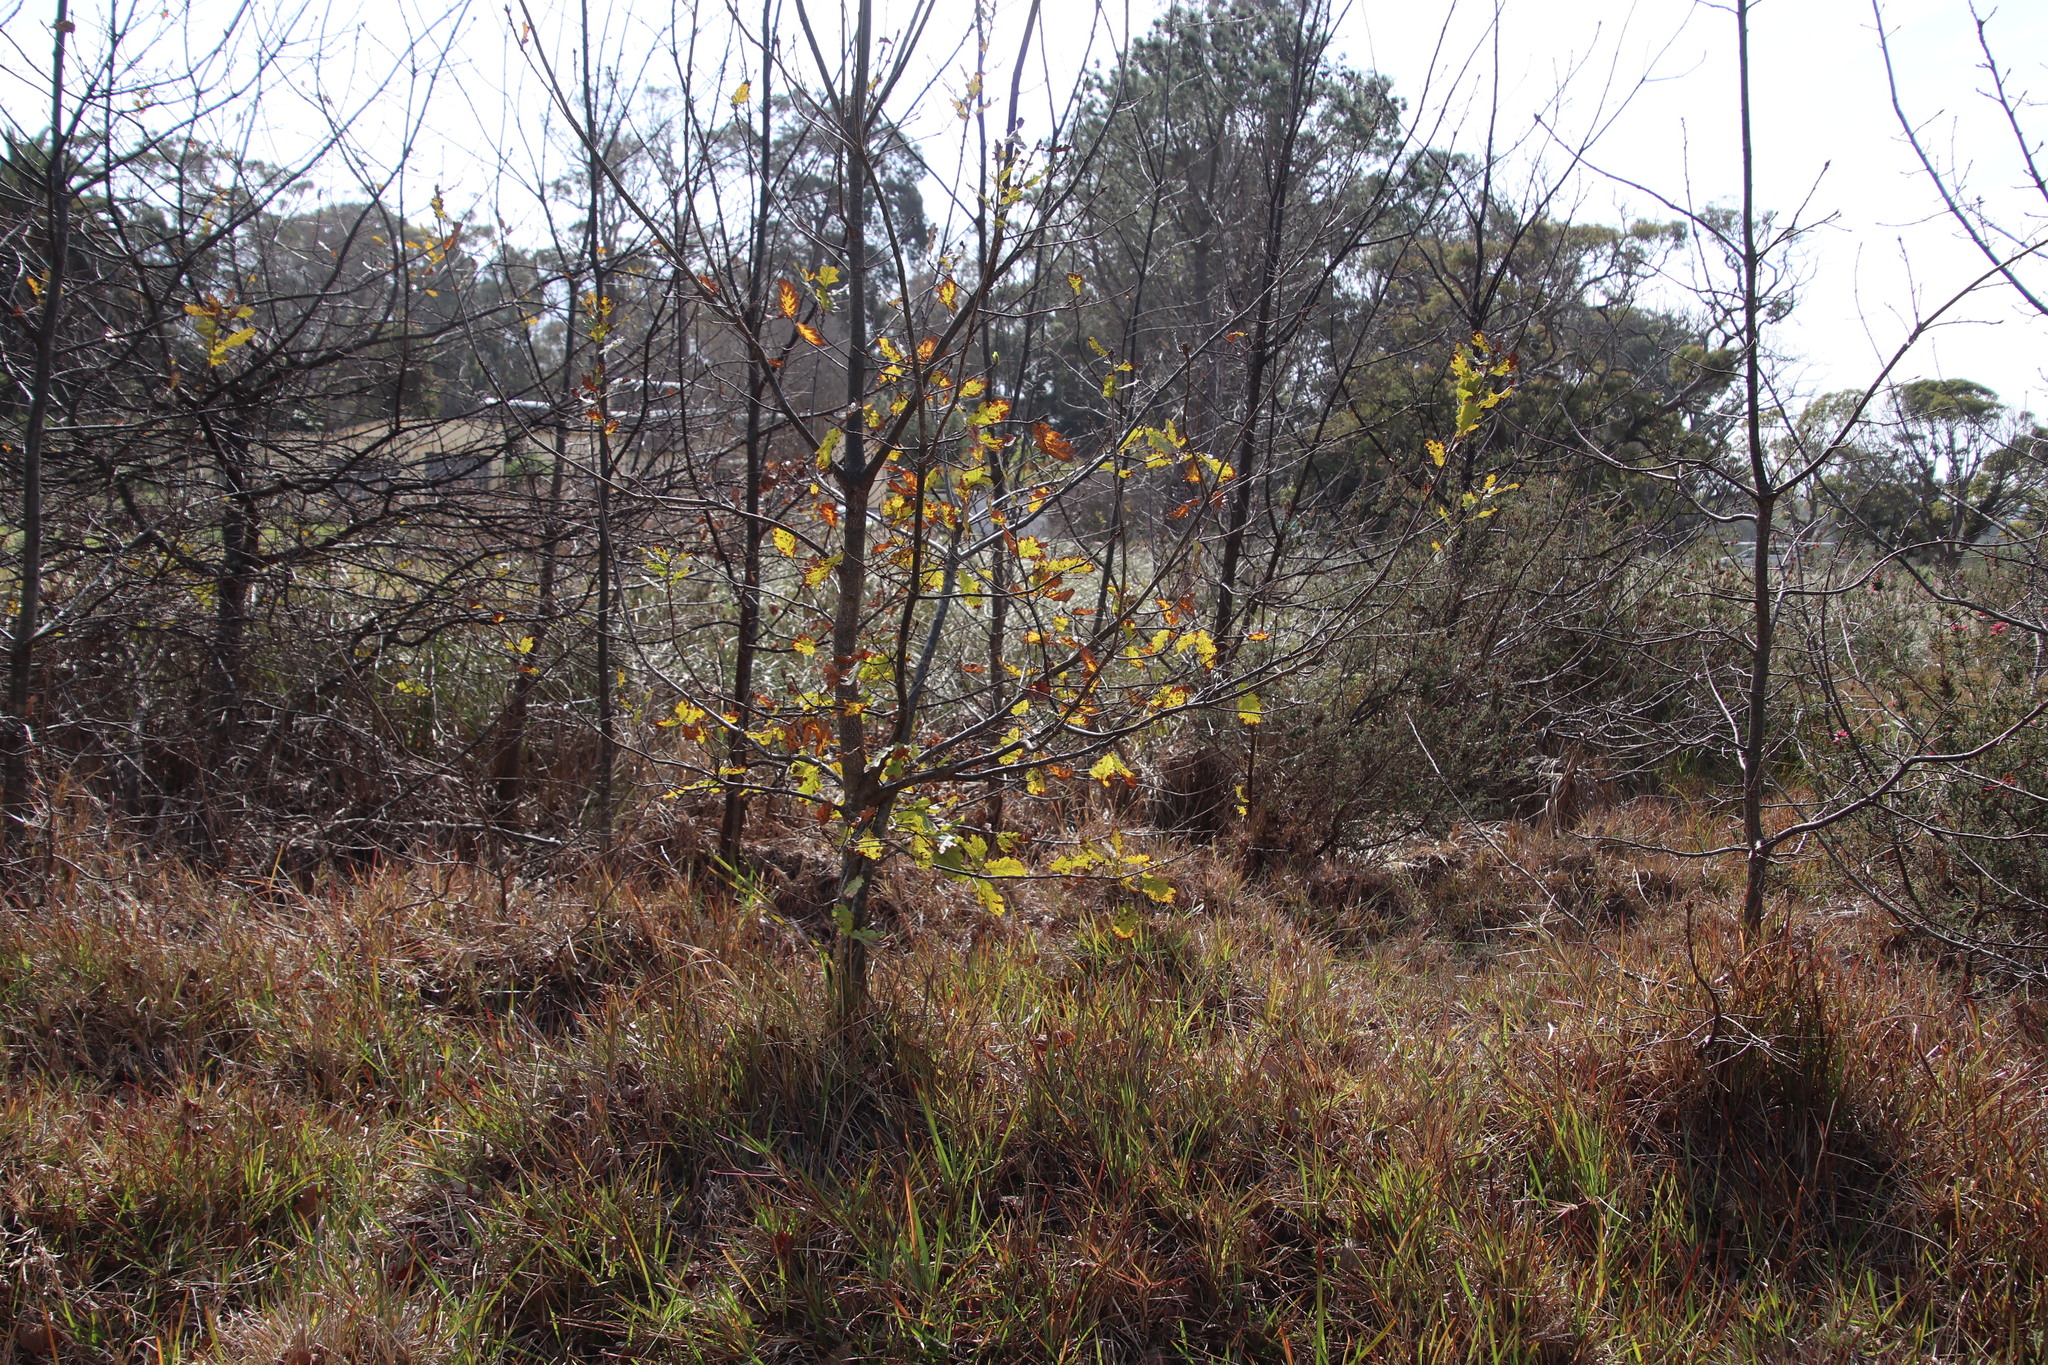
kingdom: Plantae
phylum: Tracheophyta
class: Magnoliopsida
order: Ericales
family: Ericaceae
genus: Erica
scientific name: Erica verticillata
